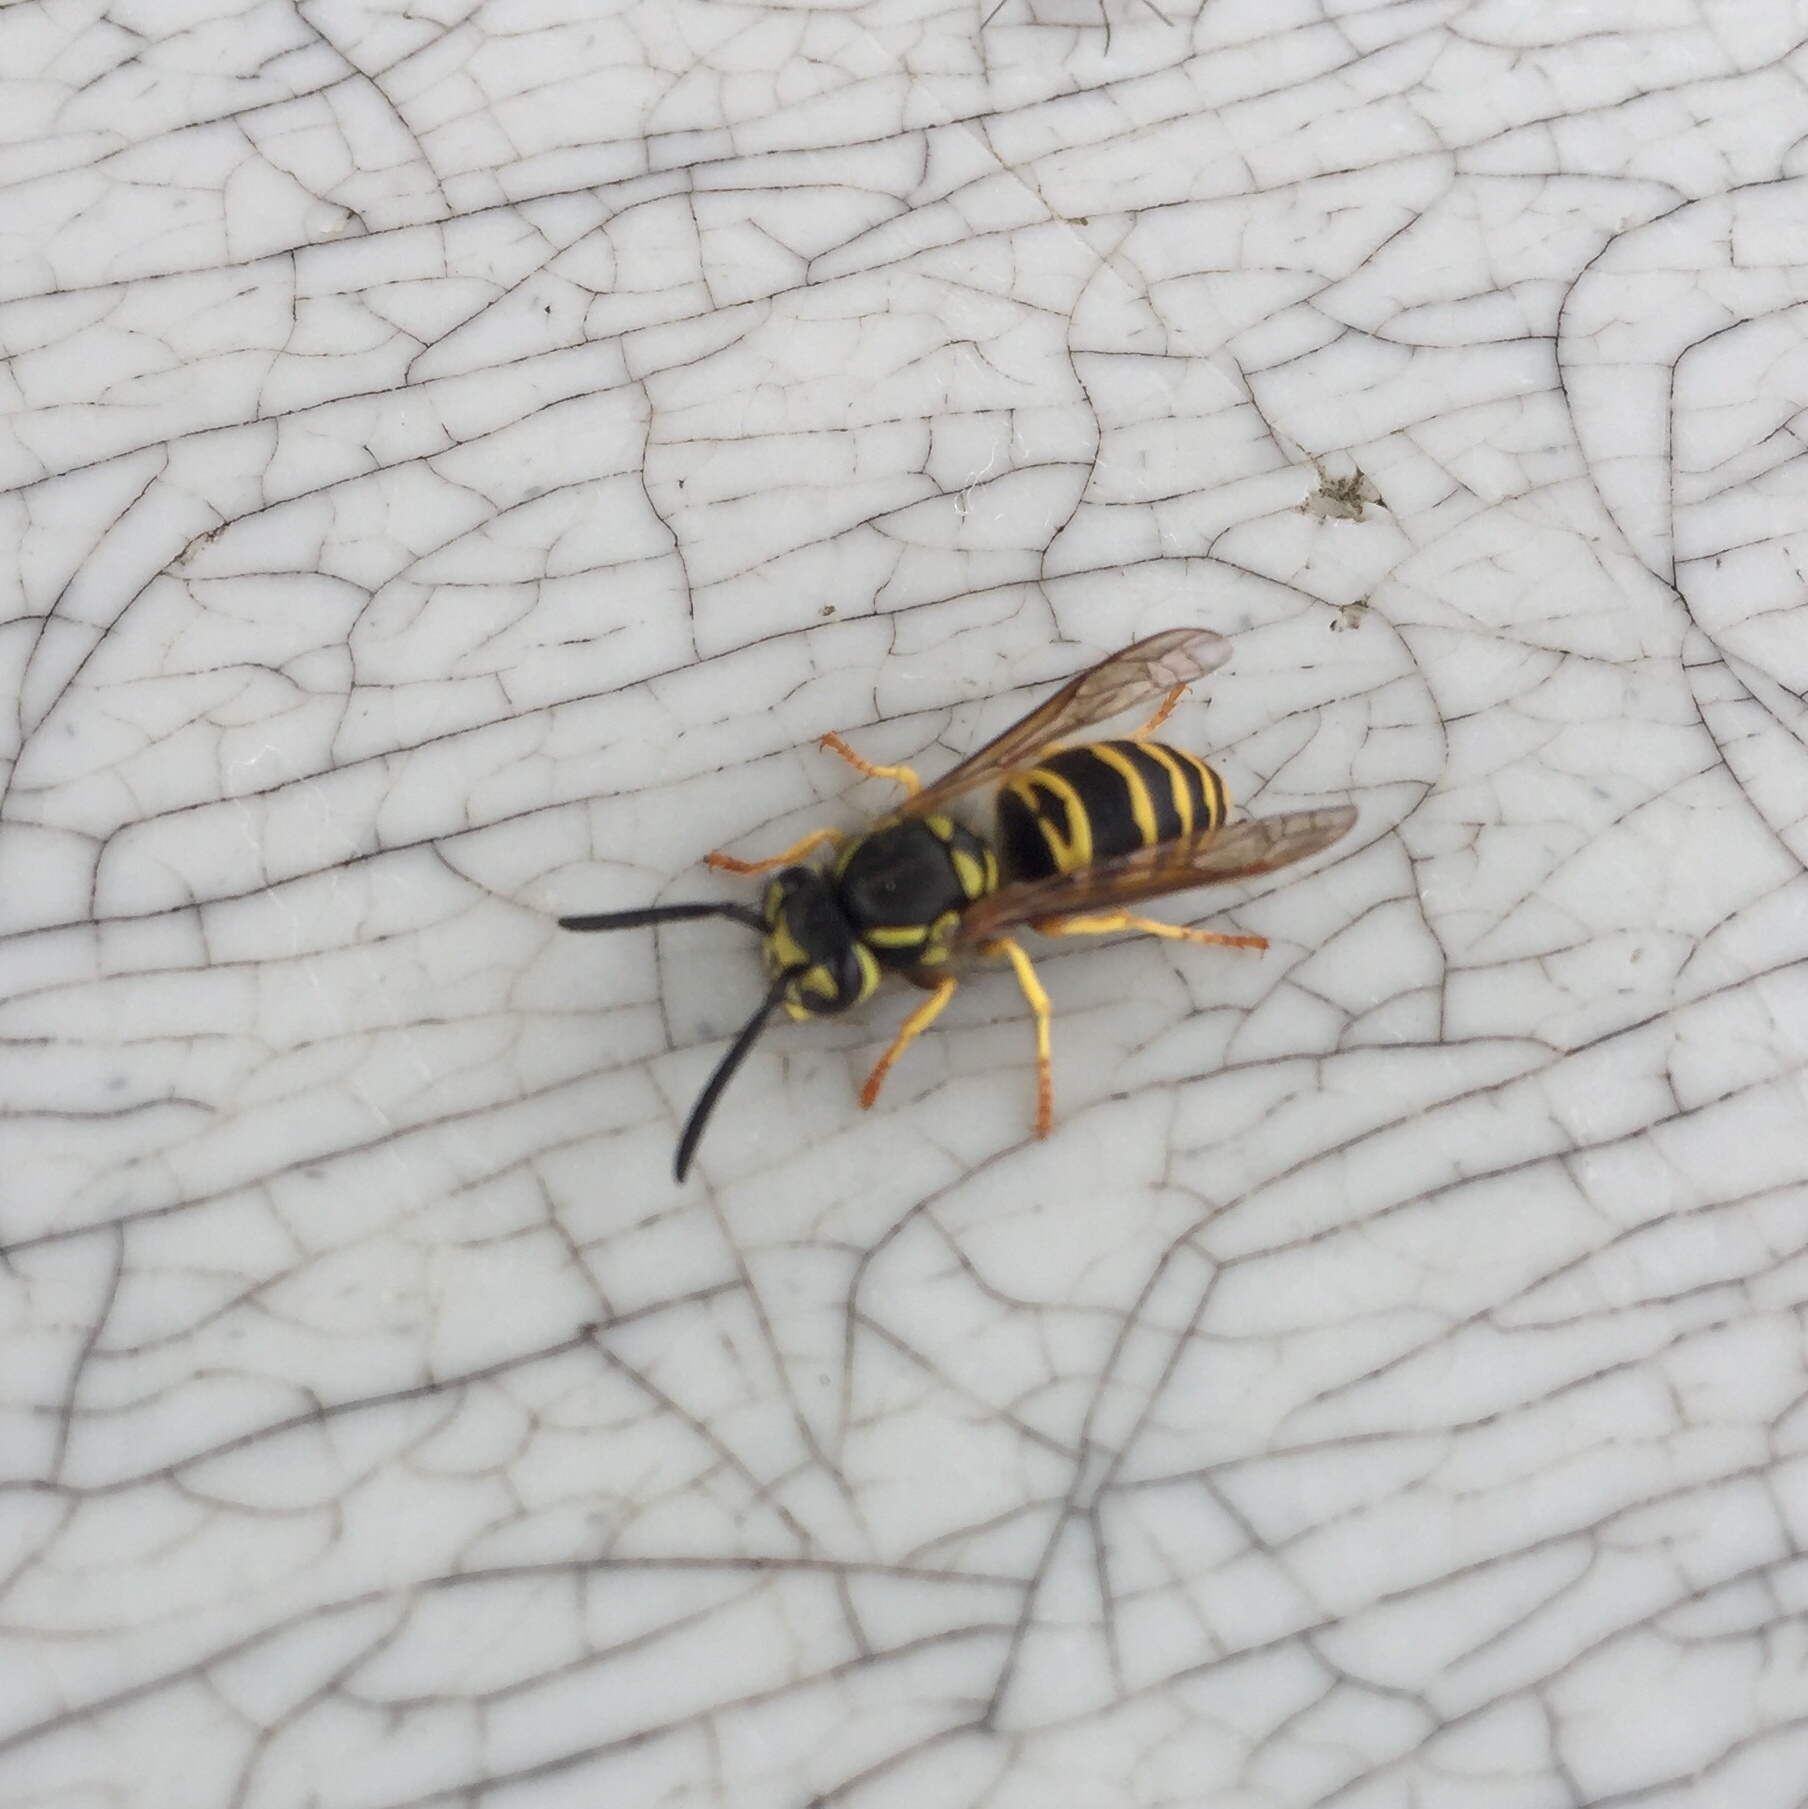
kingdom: Animalia
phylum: Arthropoda
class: Insecta
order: Hymenoptera
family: Vespidae
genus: Vespula
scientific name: Vespula maculifrons
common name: Eastern yellowjacket
